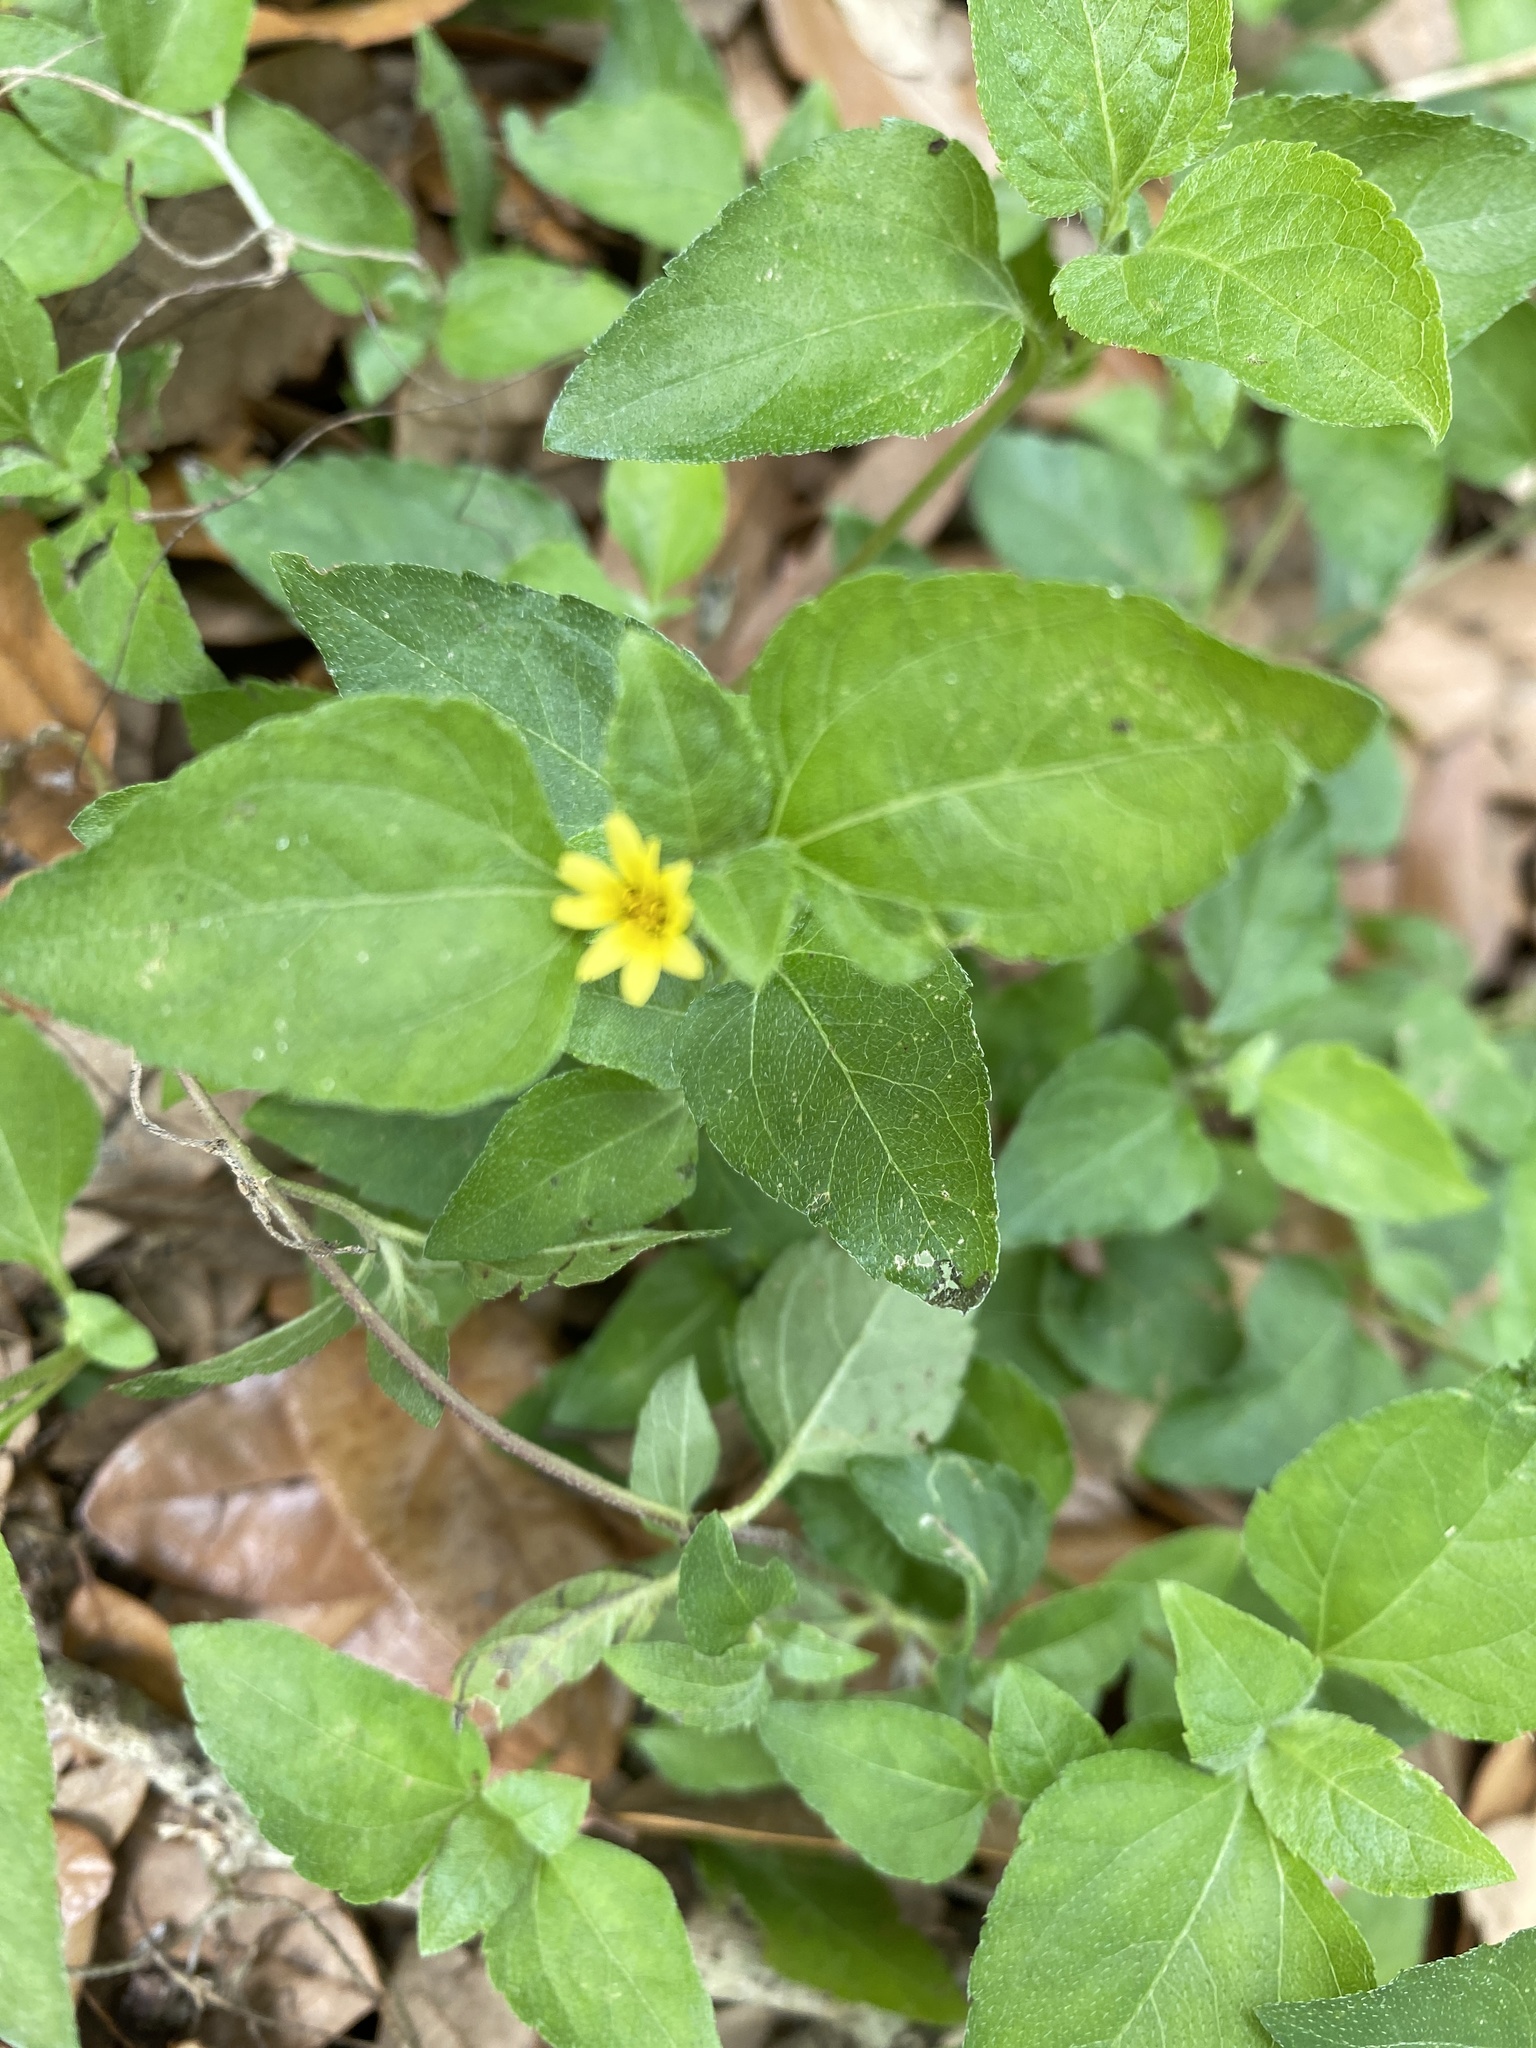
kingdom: Plantae
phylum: Tracheophyta
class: Magnoliopsida
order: Asterales
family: Asteraceae
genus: Calyptocarpus
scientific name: Calyptocarpus vialis
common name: Straggler daisy
